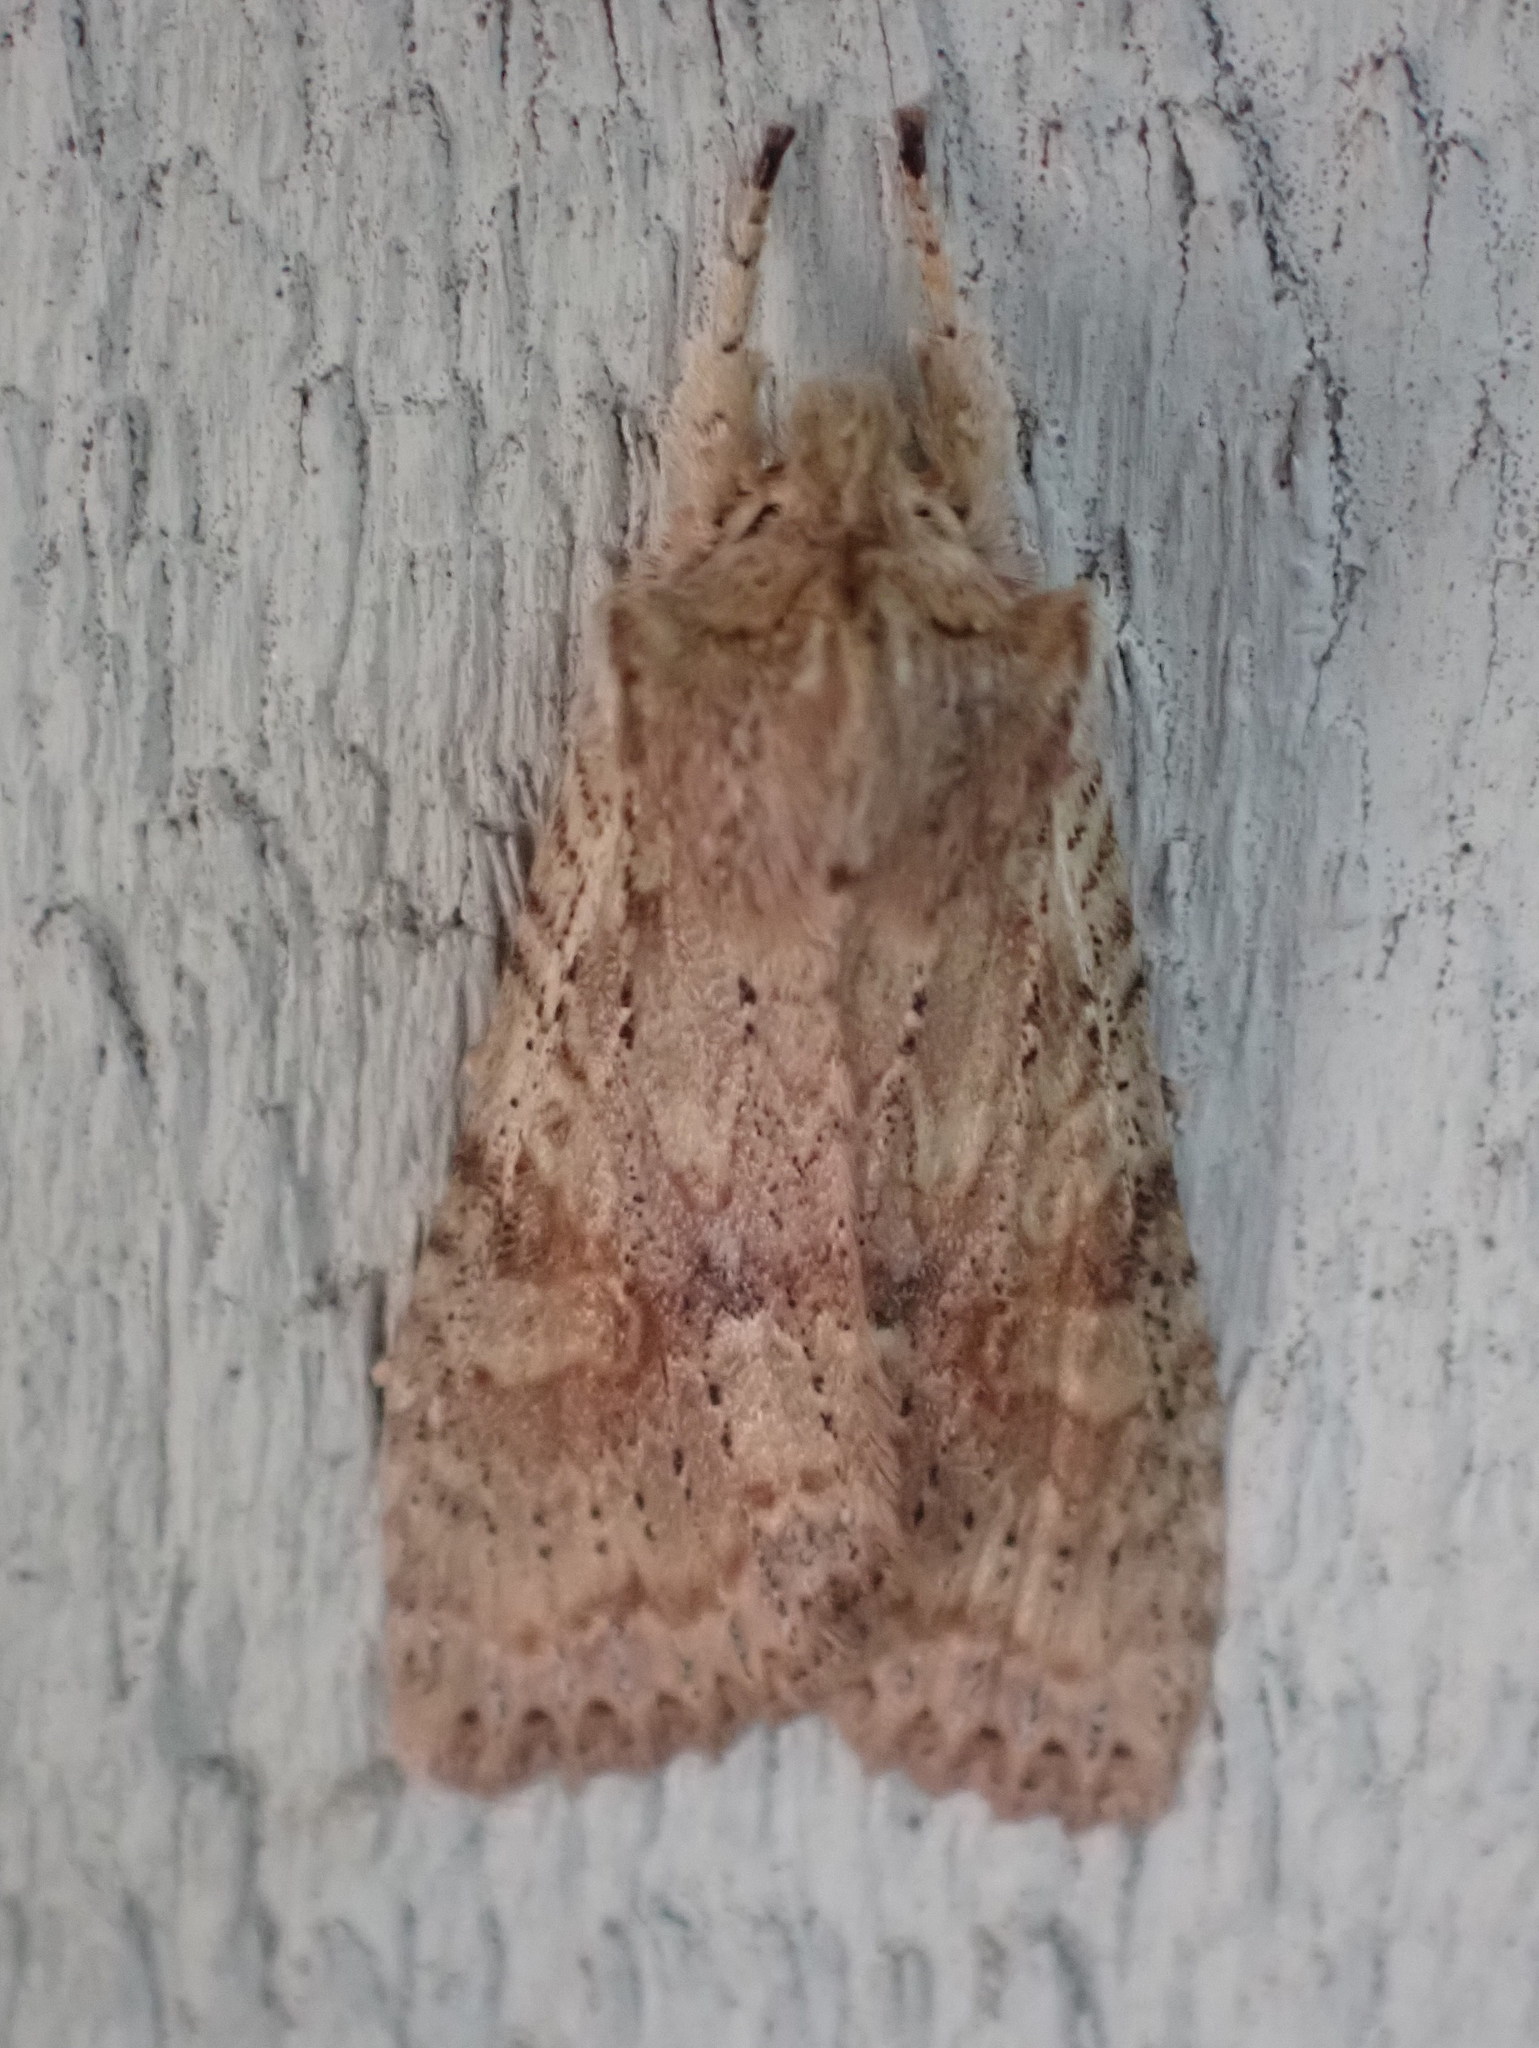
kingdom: Animalia
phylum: Arthropoda
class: Insecta
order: Lepidoptera
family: Noctuidae
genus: Lithophane
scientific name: Lithophane bethunei
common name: Bethune's pinion moth
